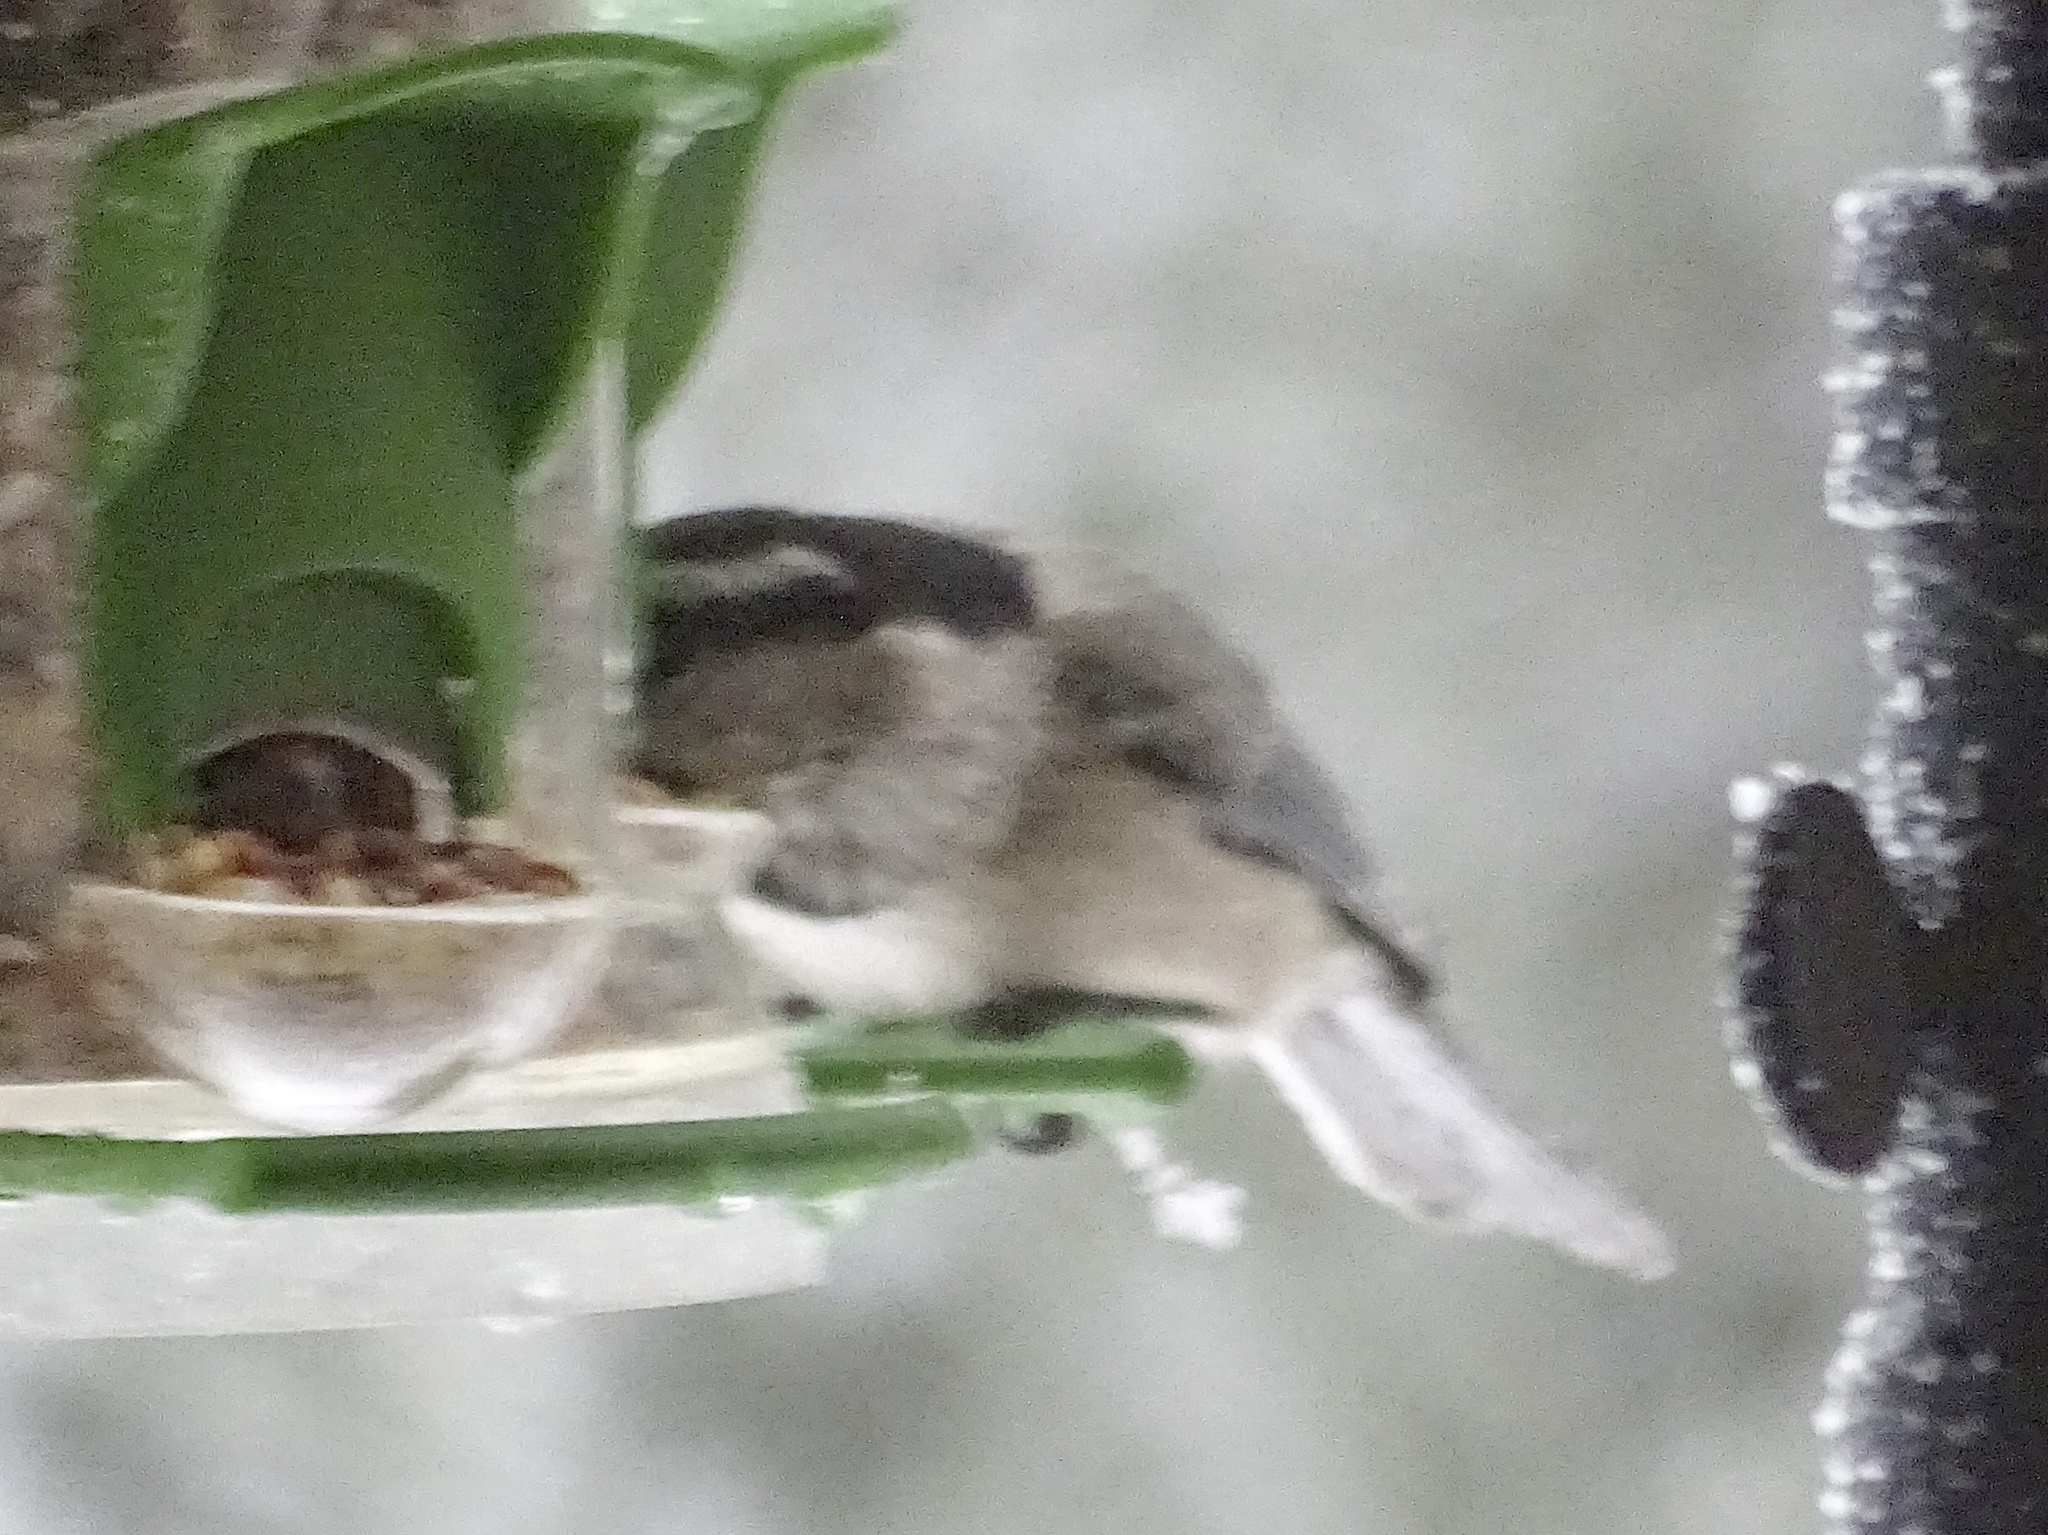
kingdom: Animalia
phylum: Chordata
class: Aves
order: Passeriformes
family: Paridae
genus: Poecile
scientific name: Poecile gambeli
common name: Mountain chickadee
